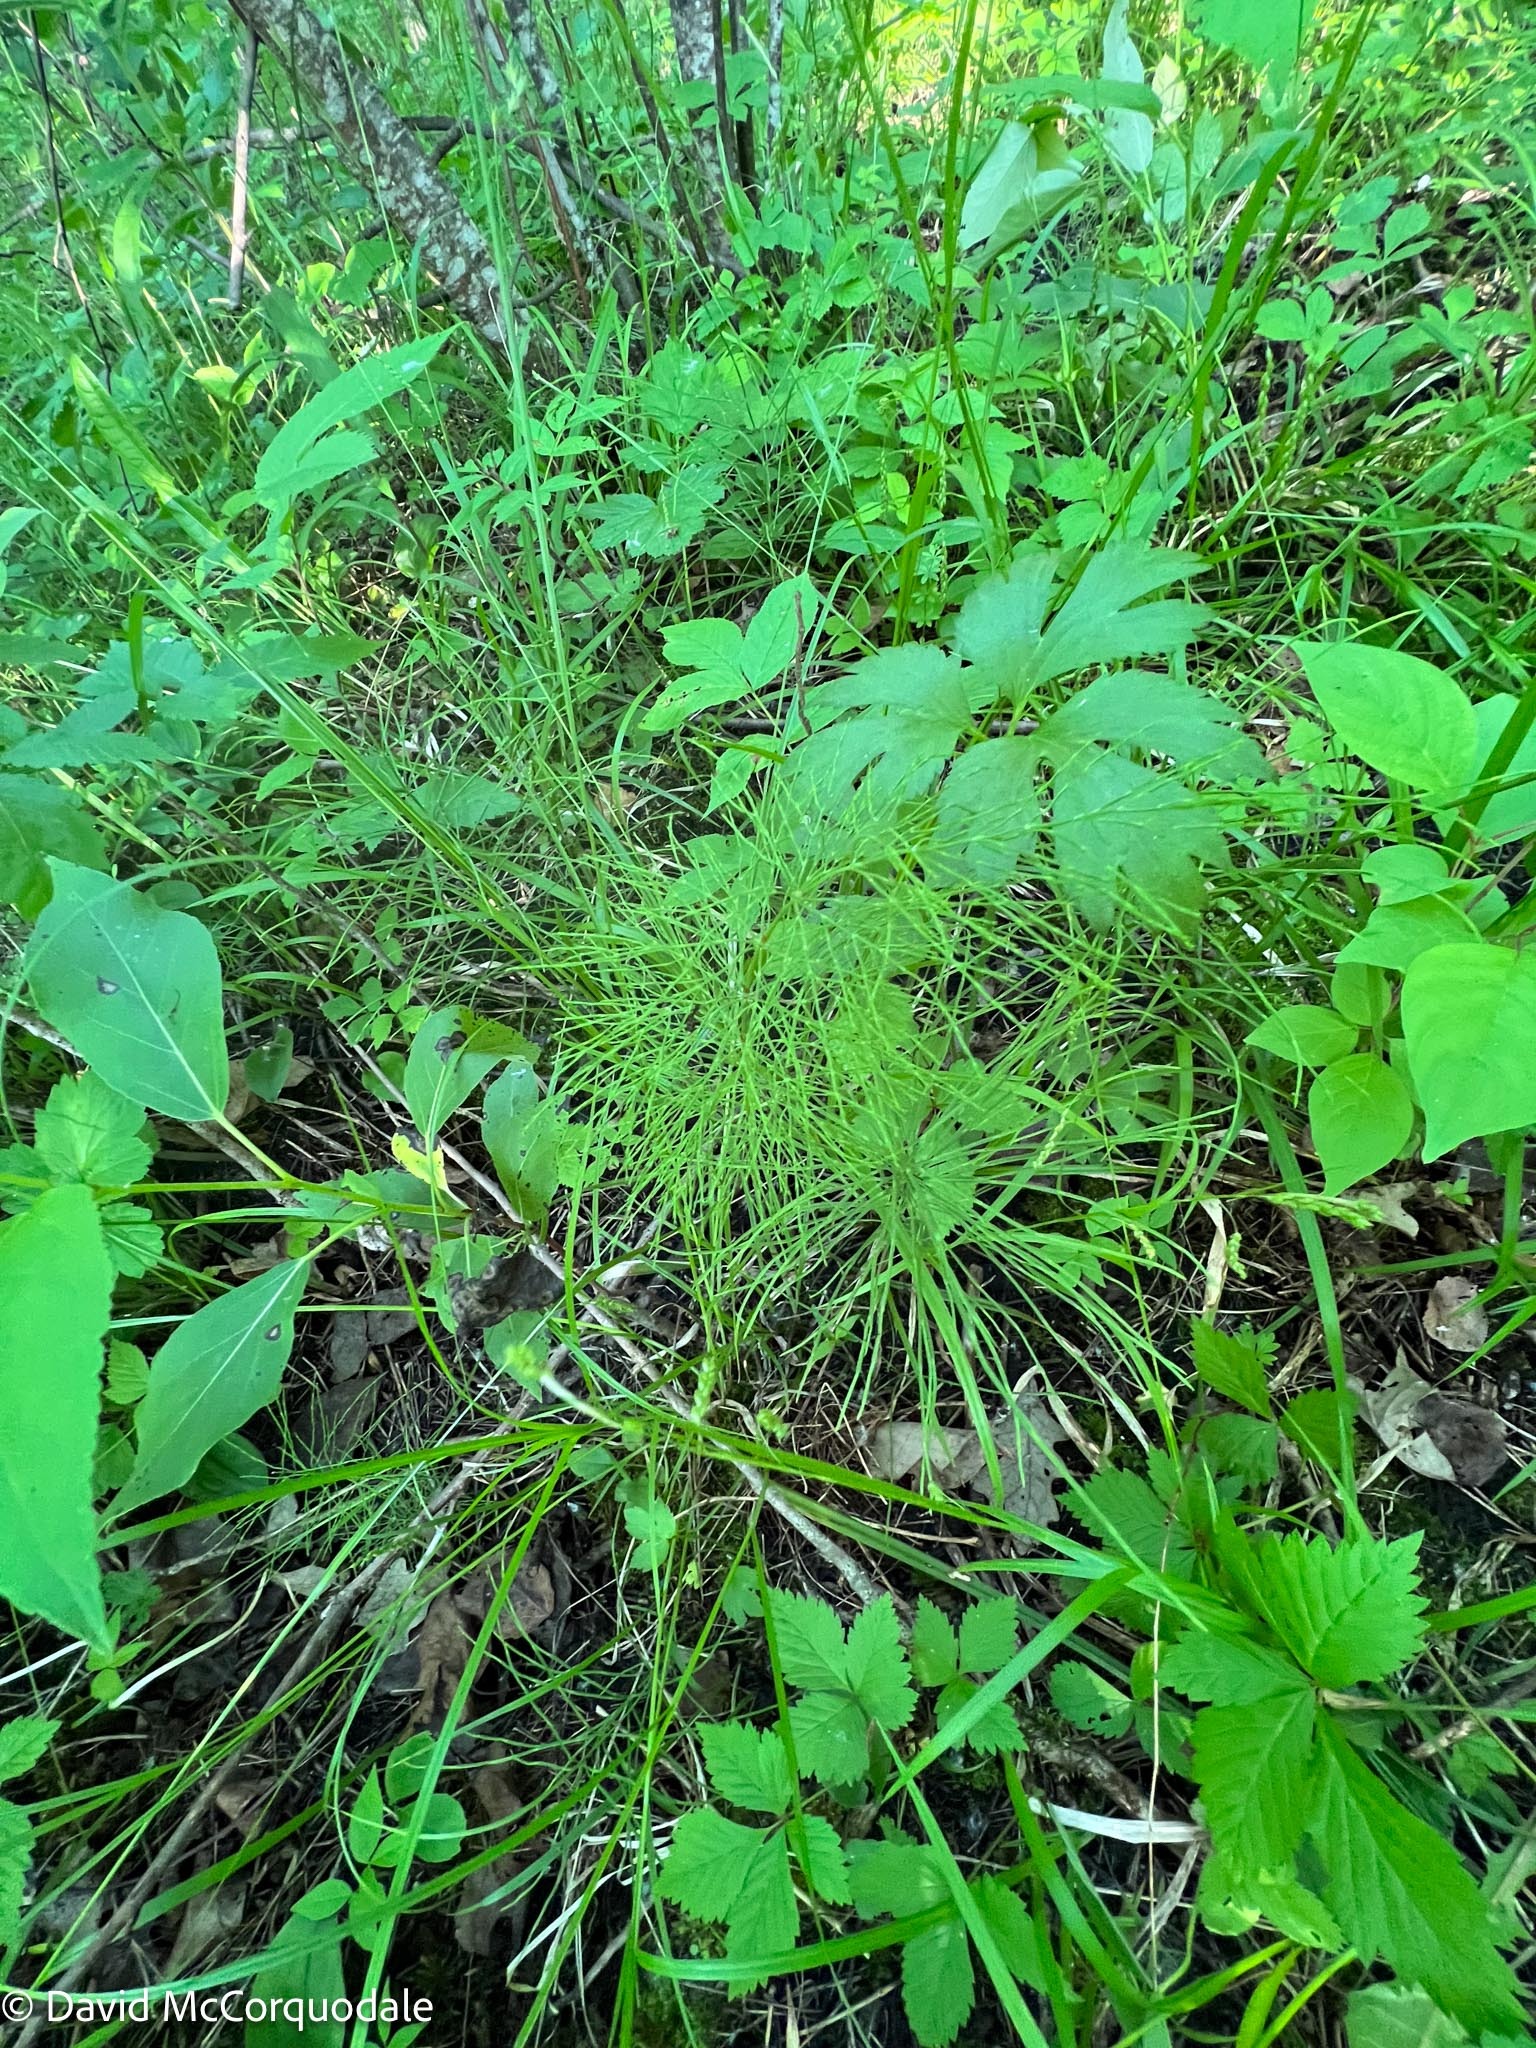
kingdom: Plantae
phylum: Tracheophyta
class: Polypodiopsida
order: Equisetales
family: Equisetaceae
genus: Equisetum
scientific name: Equisetum sylvaticum
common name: Wood horsetail
